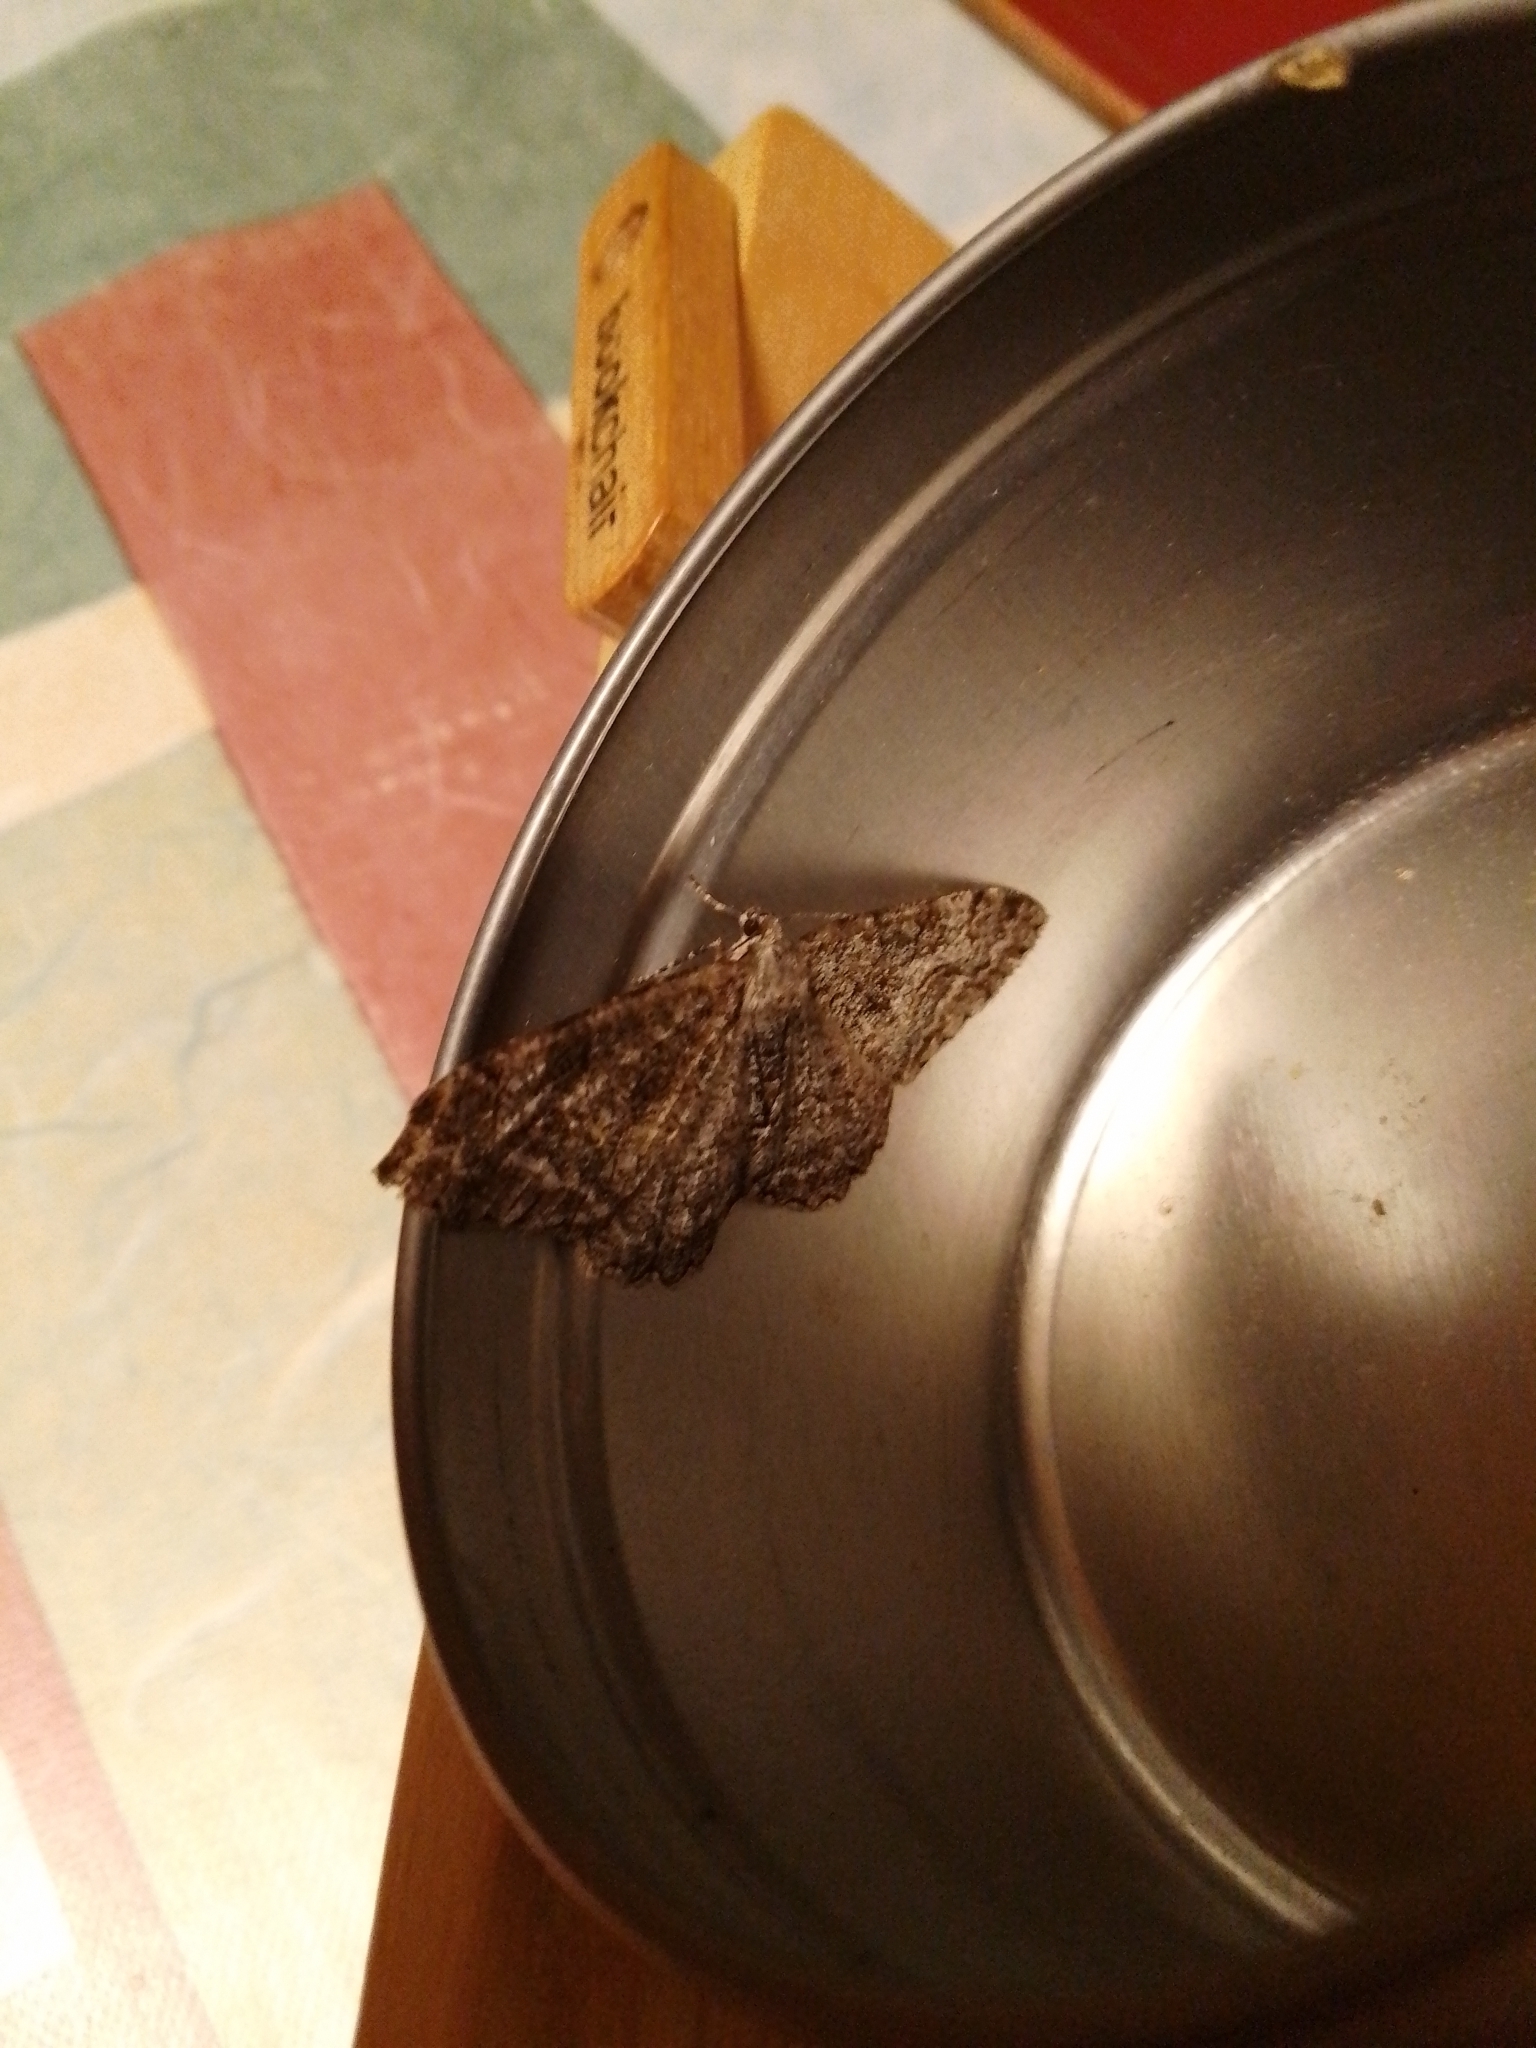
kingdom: Animalia
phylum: Arthropoda
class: Insecta
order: Lepidoptera
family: Geometridae
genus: Alcis
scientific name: Alcis repandata
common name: Mottled beauty
